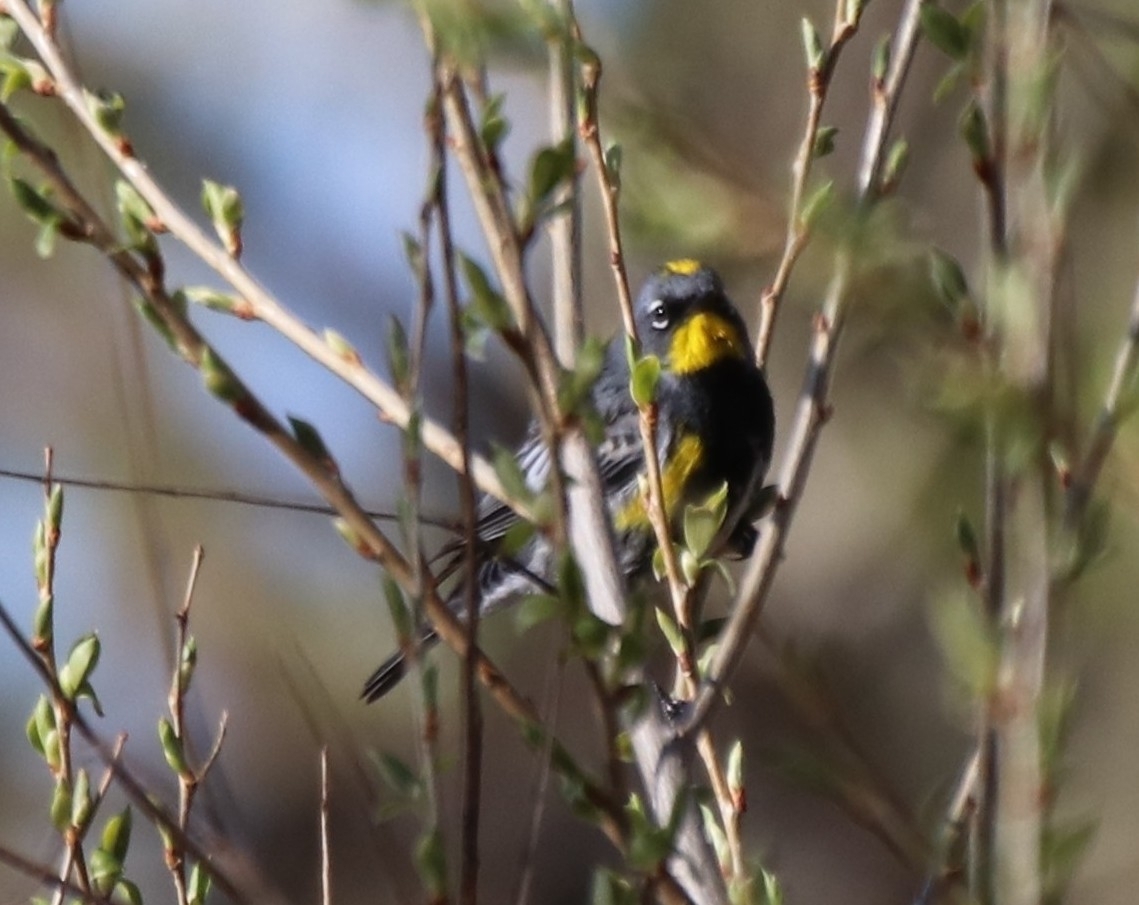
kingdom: Animalia
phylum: Chordata
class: Aves
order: Passeriformes
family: Parulidae
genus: Setophaga
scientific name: Setophaga coronata
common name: Myrtle warbler
